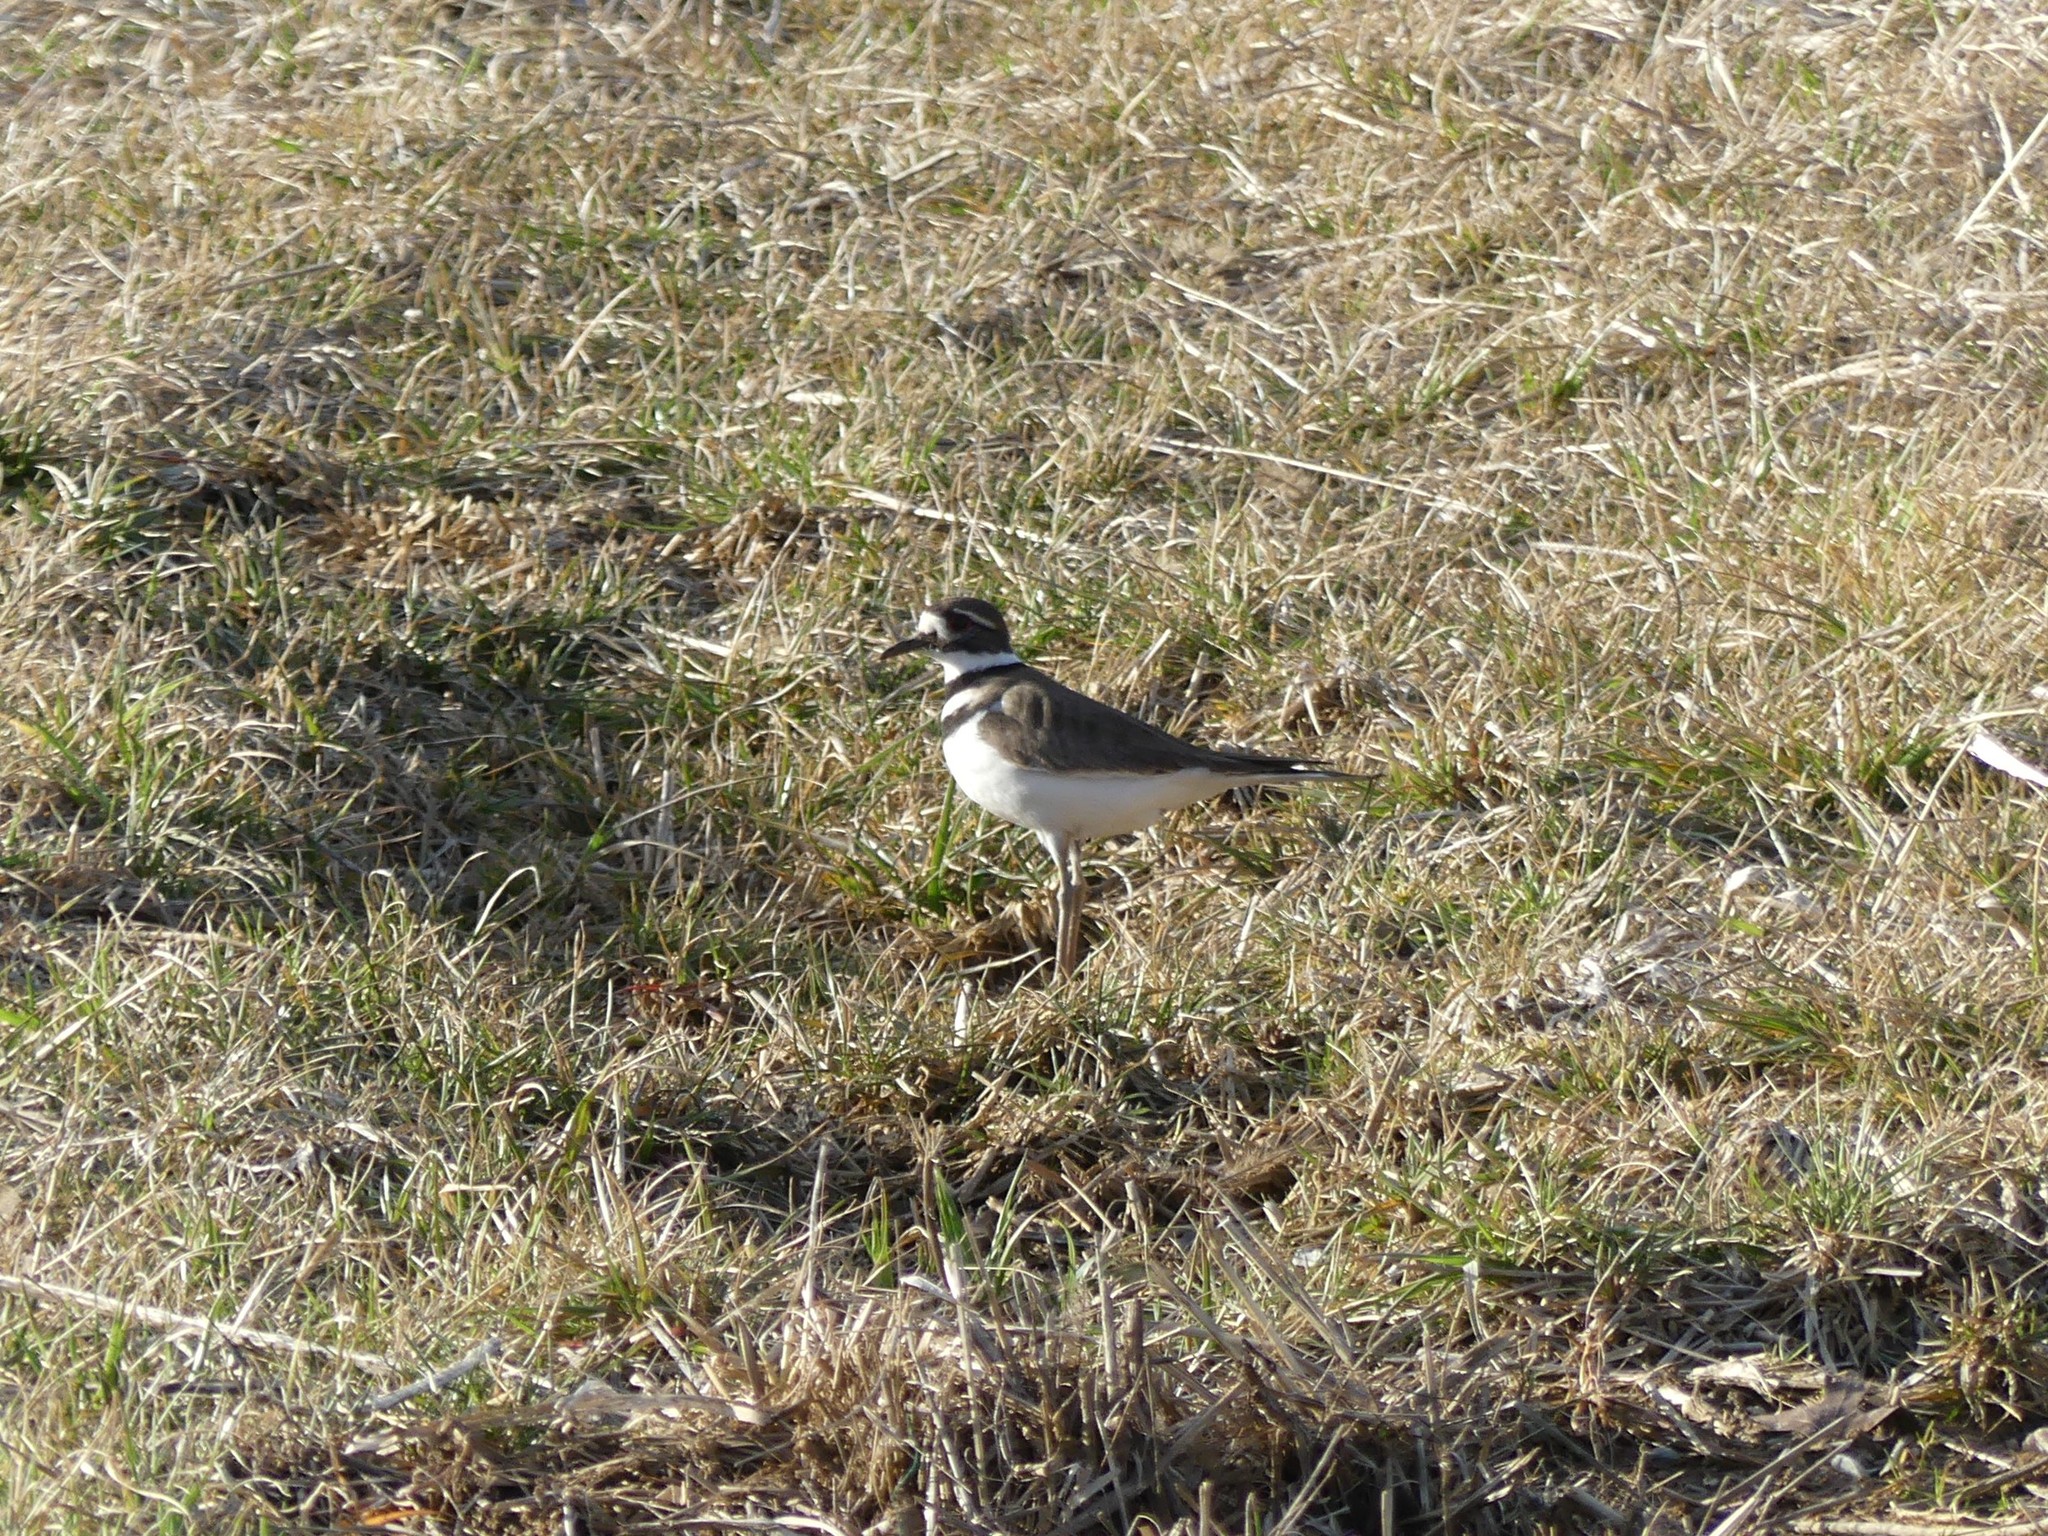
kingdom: Animalia
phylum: Chordata
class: Aves
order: Charadriiformes
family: Charadriidae
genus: Charadrius
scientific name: Charadrius vociferus
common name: Killdeer
